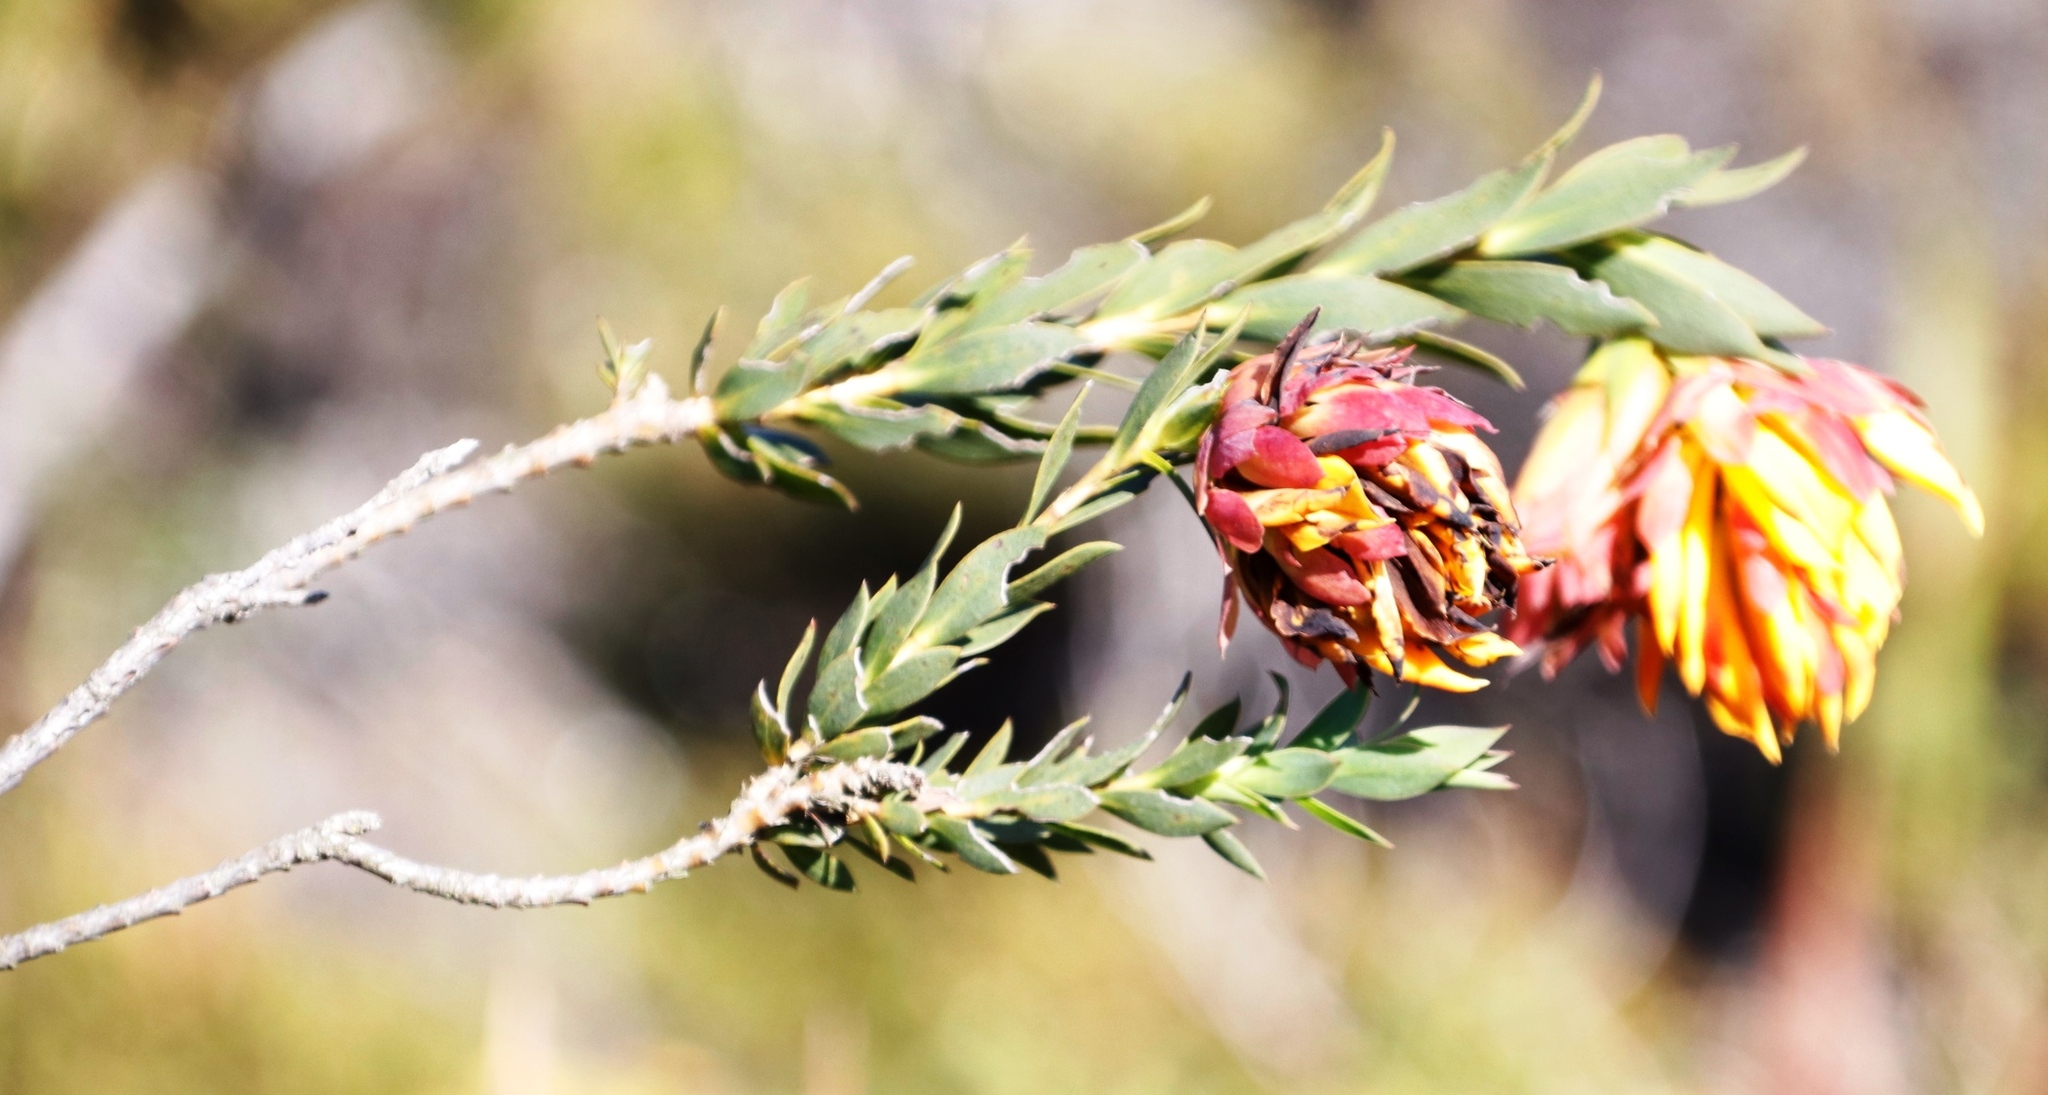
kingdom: Plantae
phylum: Tracheophyta
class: Magnoliopsida
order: Fabales
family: Fabaceae
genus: Liparia
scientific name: Liparia splendens
